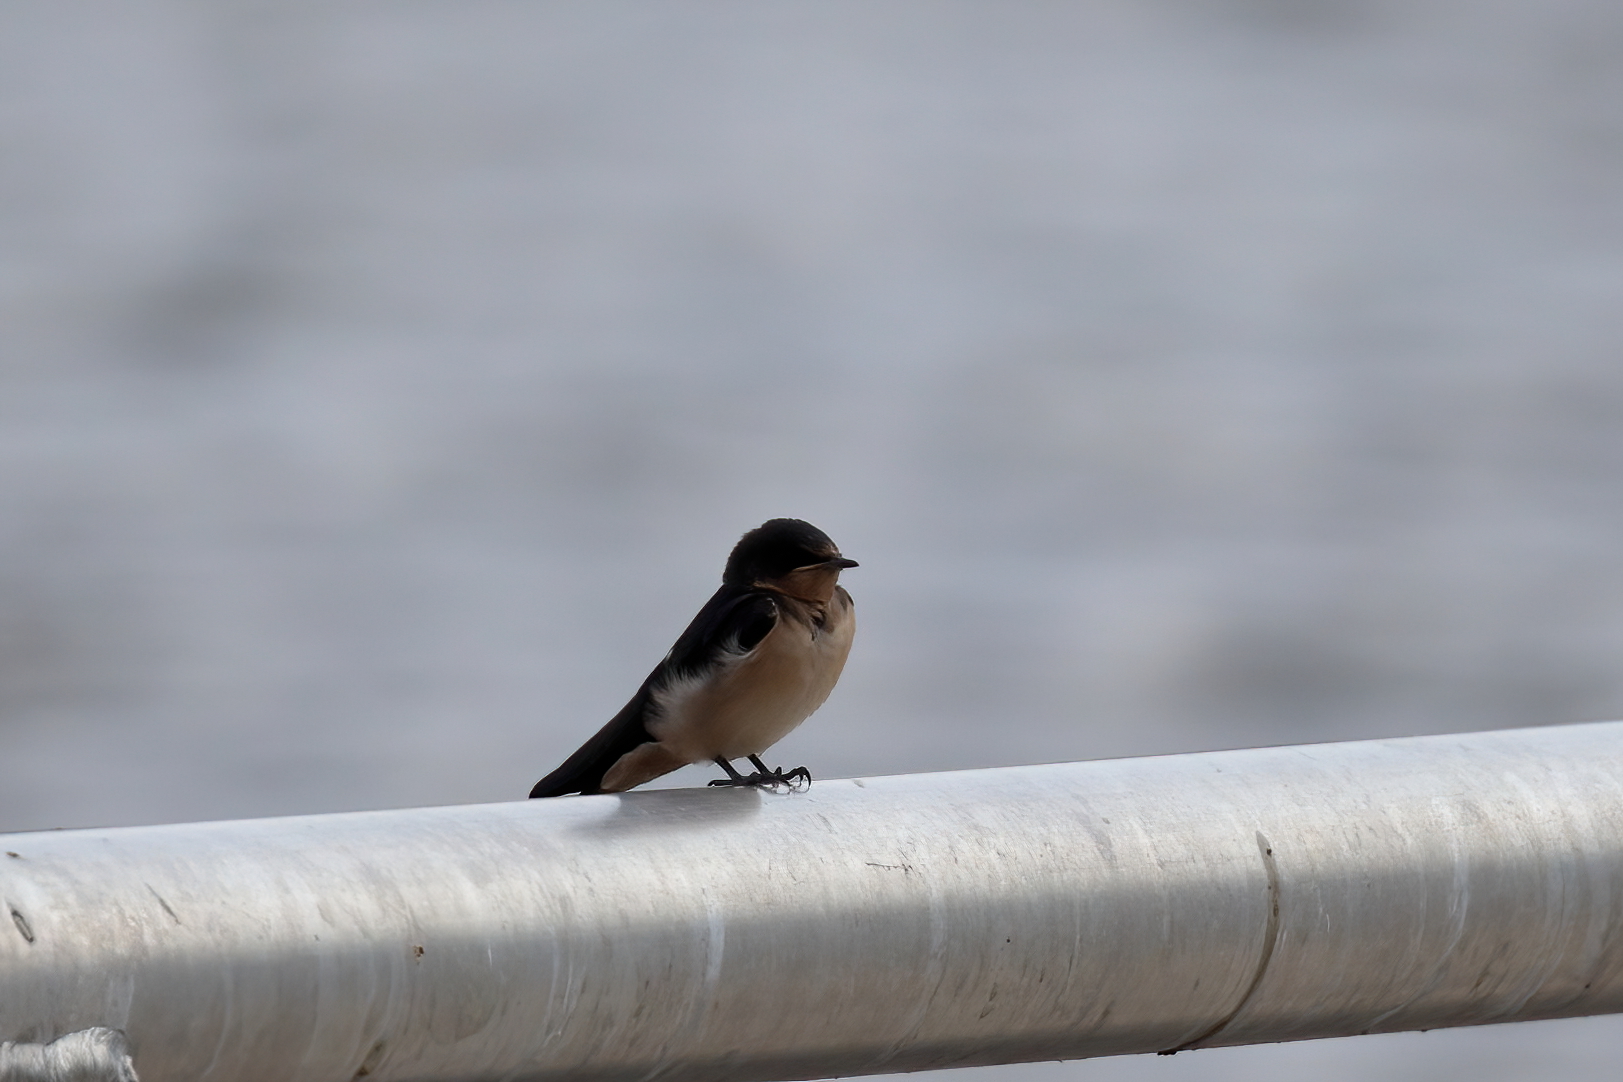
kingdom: Animalia
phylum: Chordata
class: Aves
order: Passeriformes
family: Hirundinidae
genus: Hirundo
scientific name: Hirundo rustica
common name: Barn swallow
